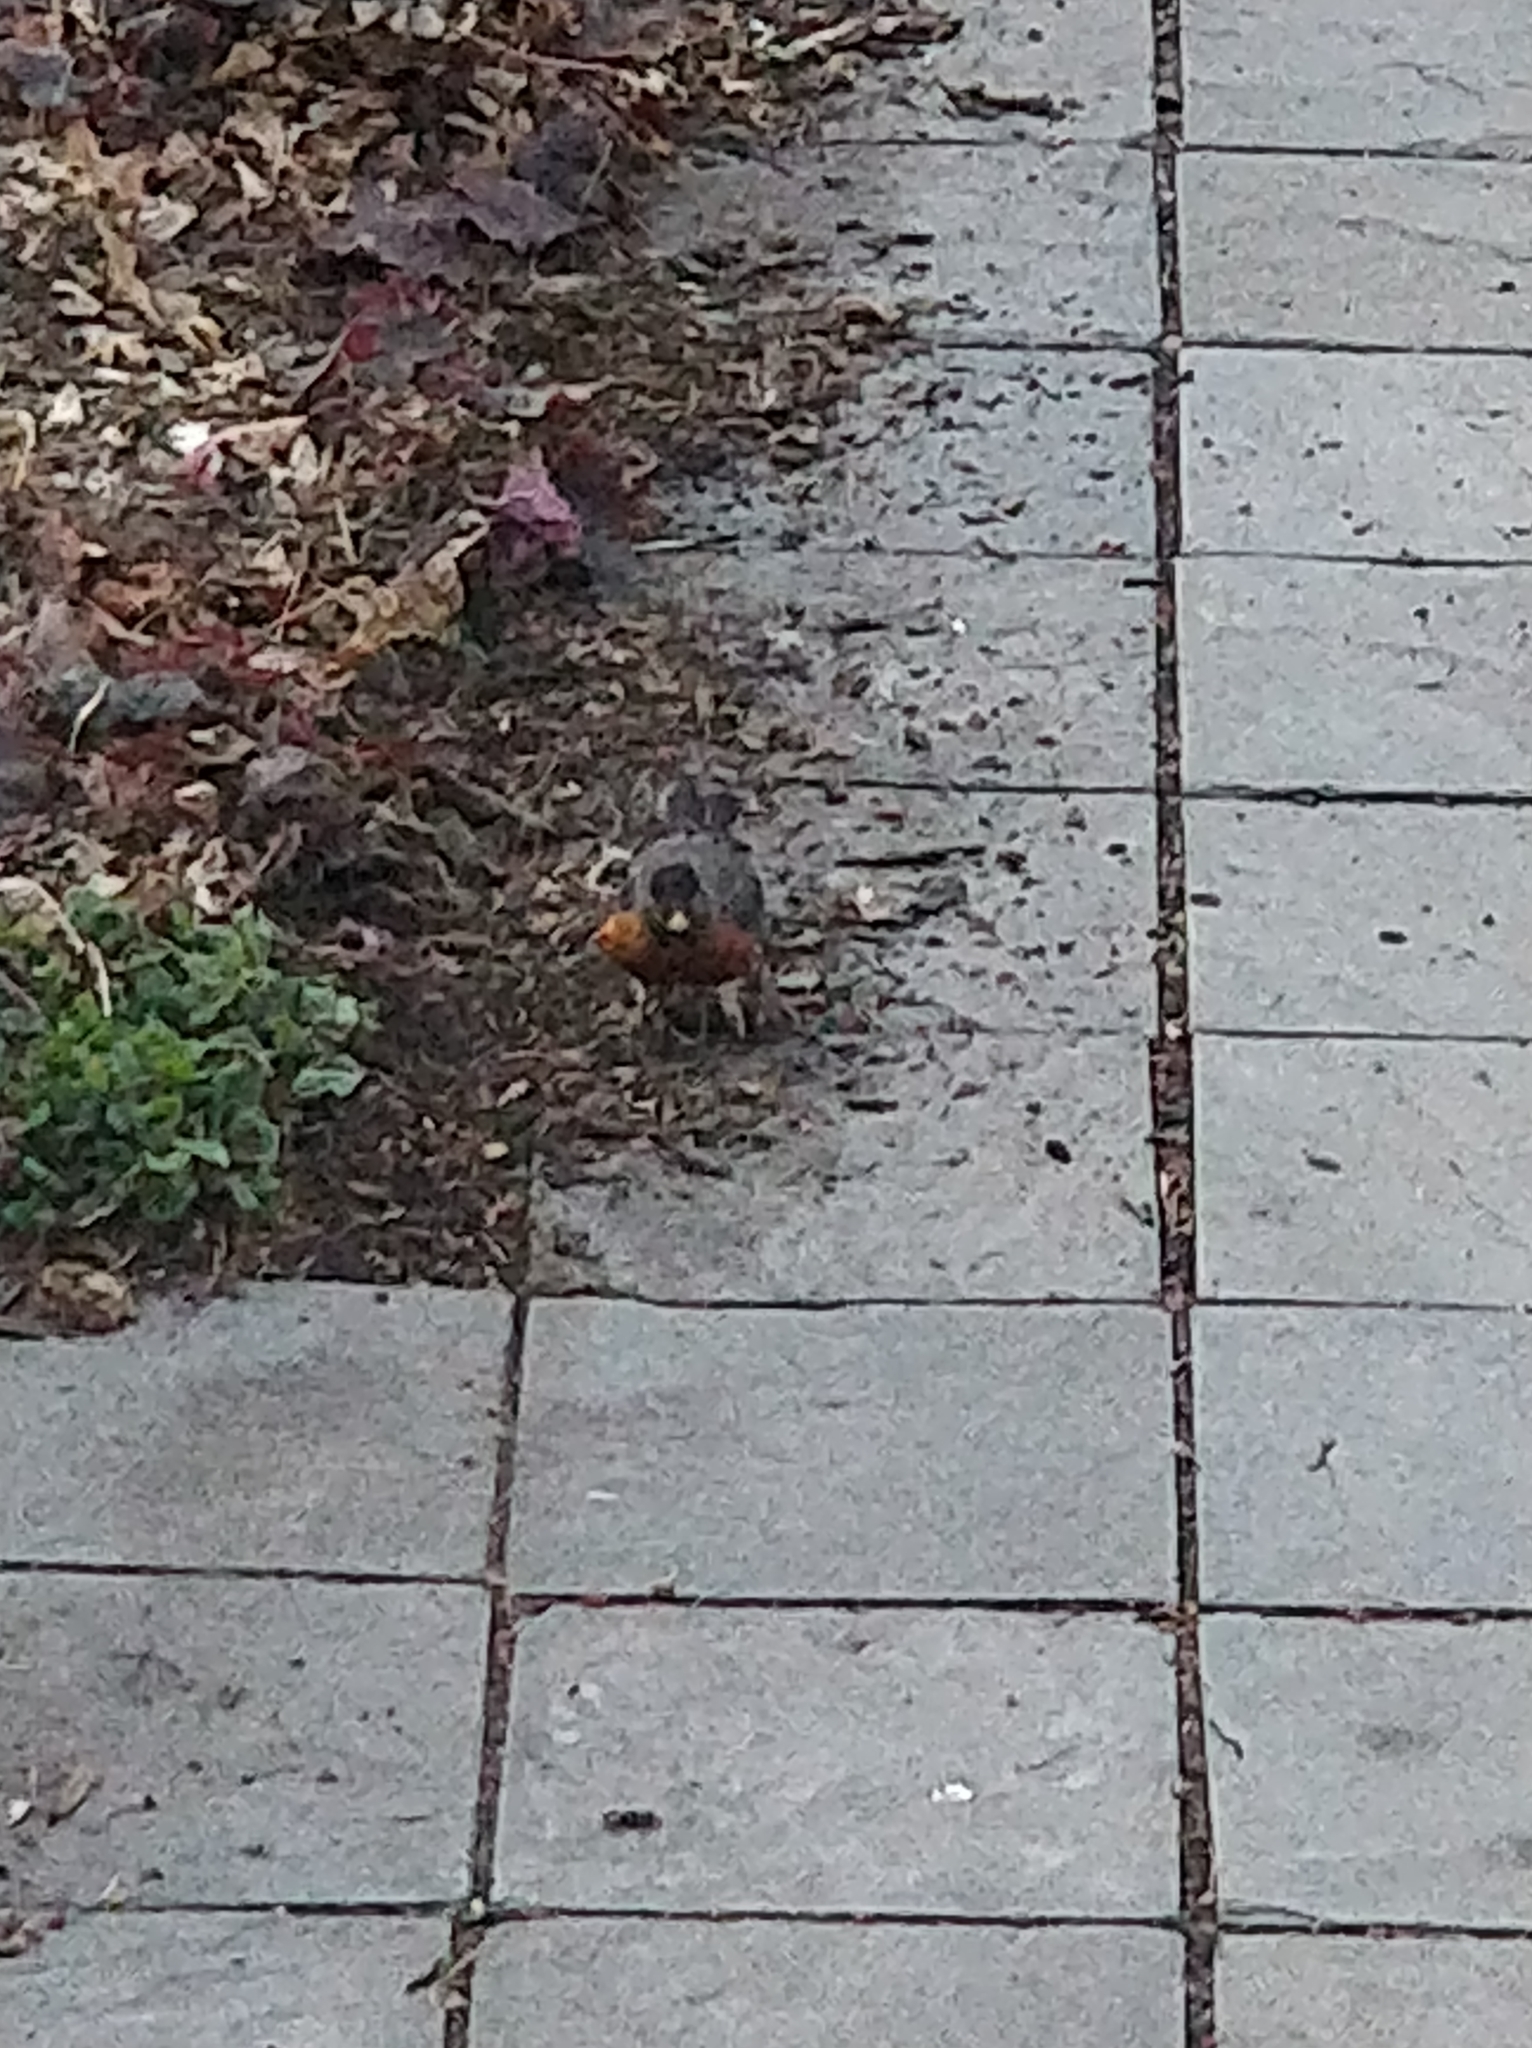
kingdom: Animalia
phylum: Chordata
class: Aves
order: Passeriformes
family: Turdidae
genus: Turdus
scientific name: Turdus migratorius
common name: American robin
